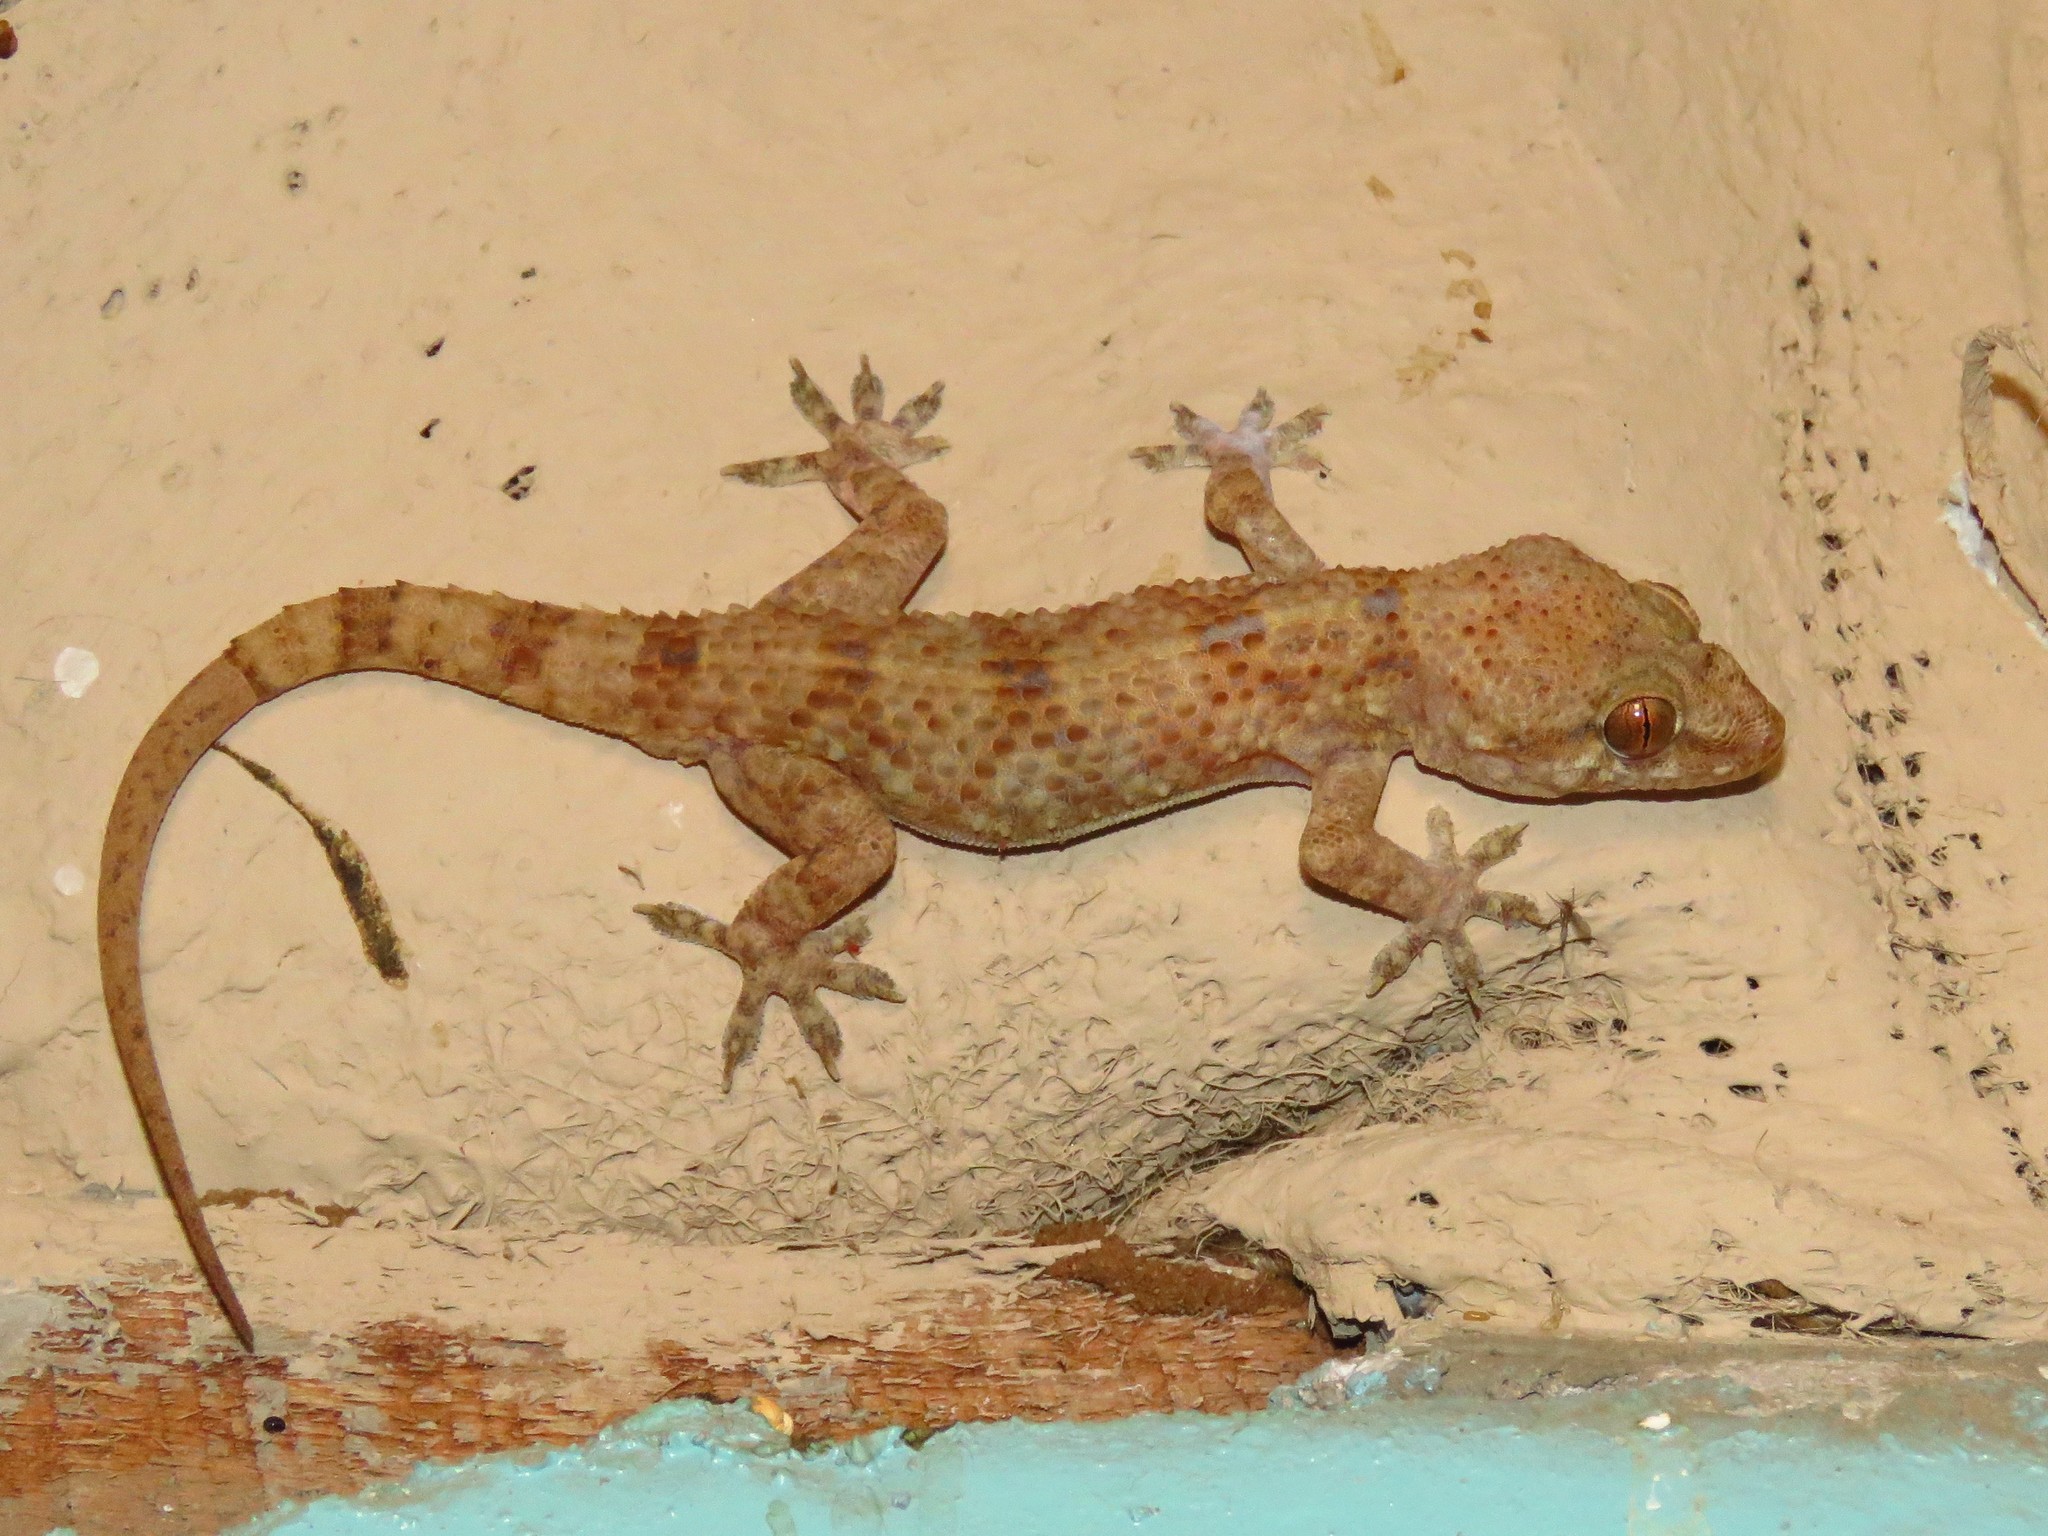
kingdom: Animalia
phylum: Chordata
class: Squamata
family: Gekkonidae
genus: Hemidactylus
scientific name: Hemidactylus angulatus
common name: Brook's house gecko
